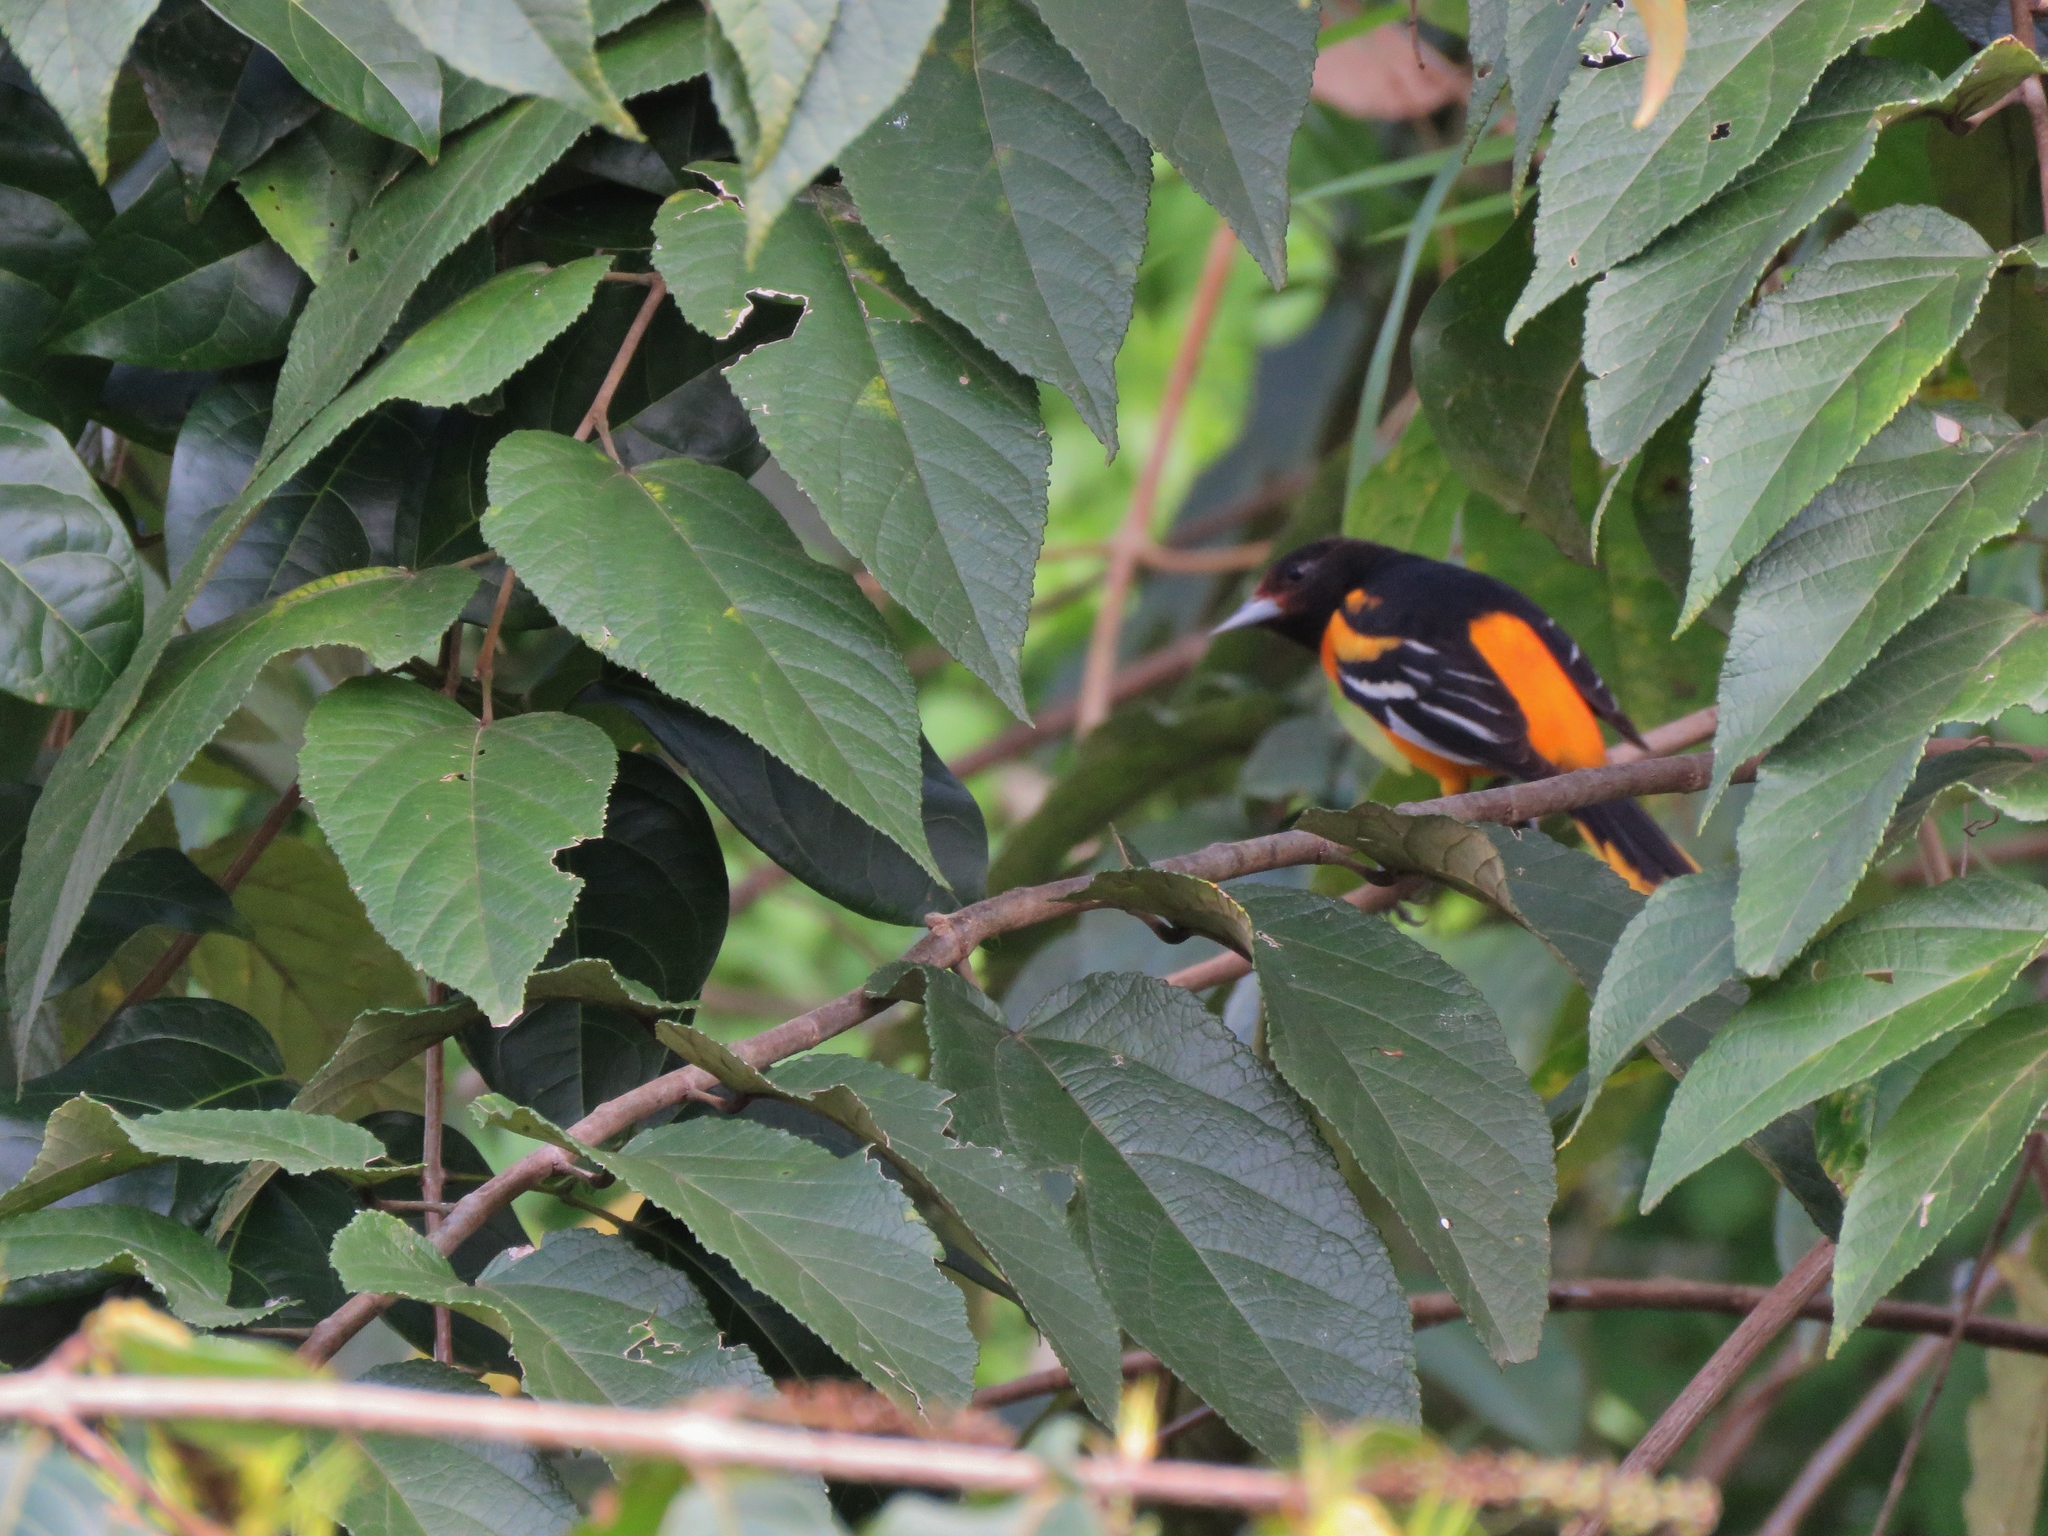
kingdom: Animalia
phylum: Chordata
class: Aves
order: Passeriformes
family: Icteridae
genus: Icterus
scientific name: Icterus galbula
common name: Baltimore oriole
